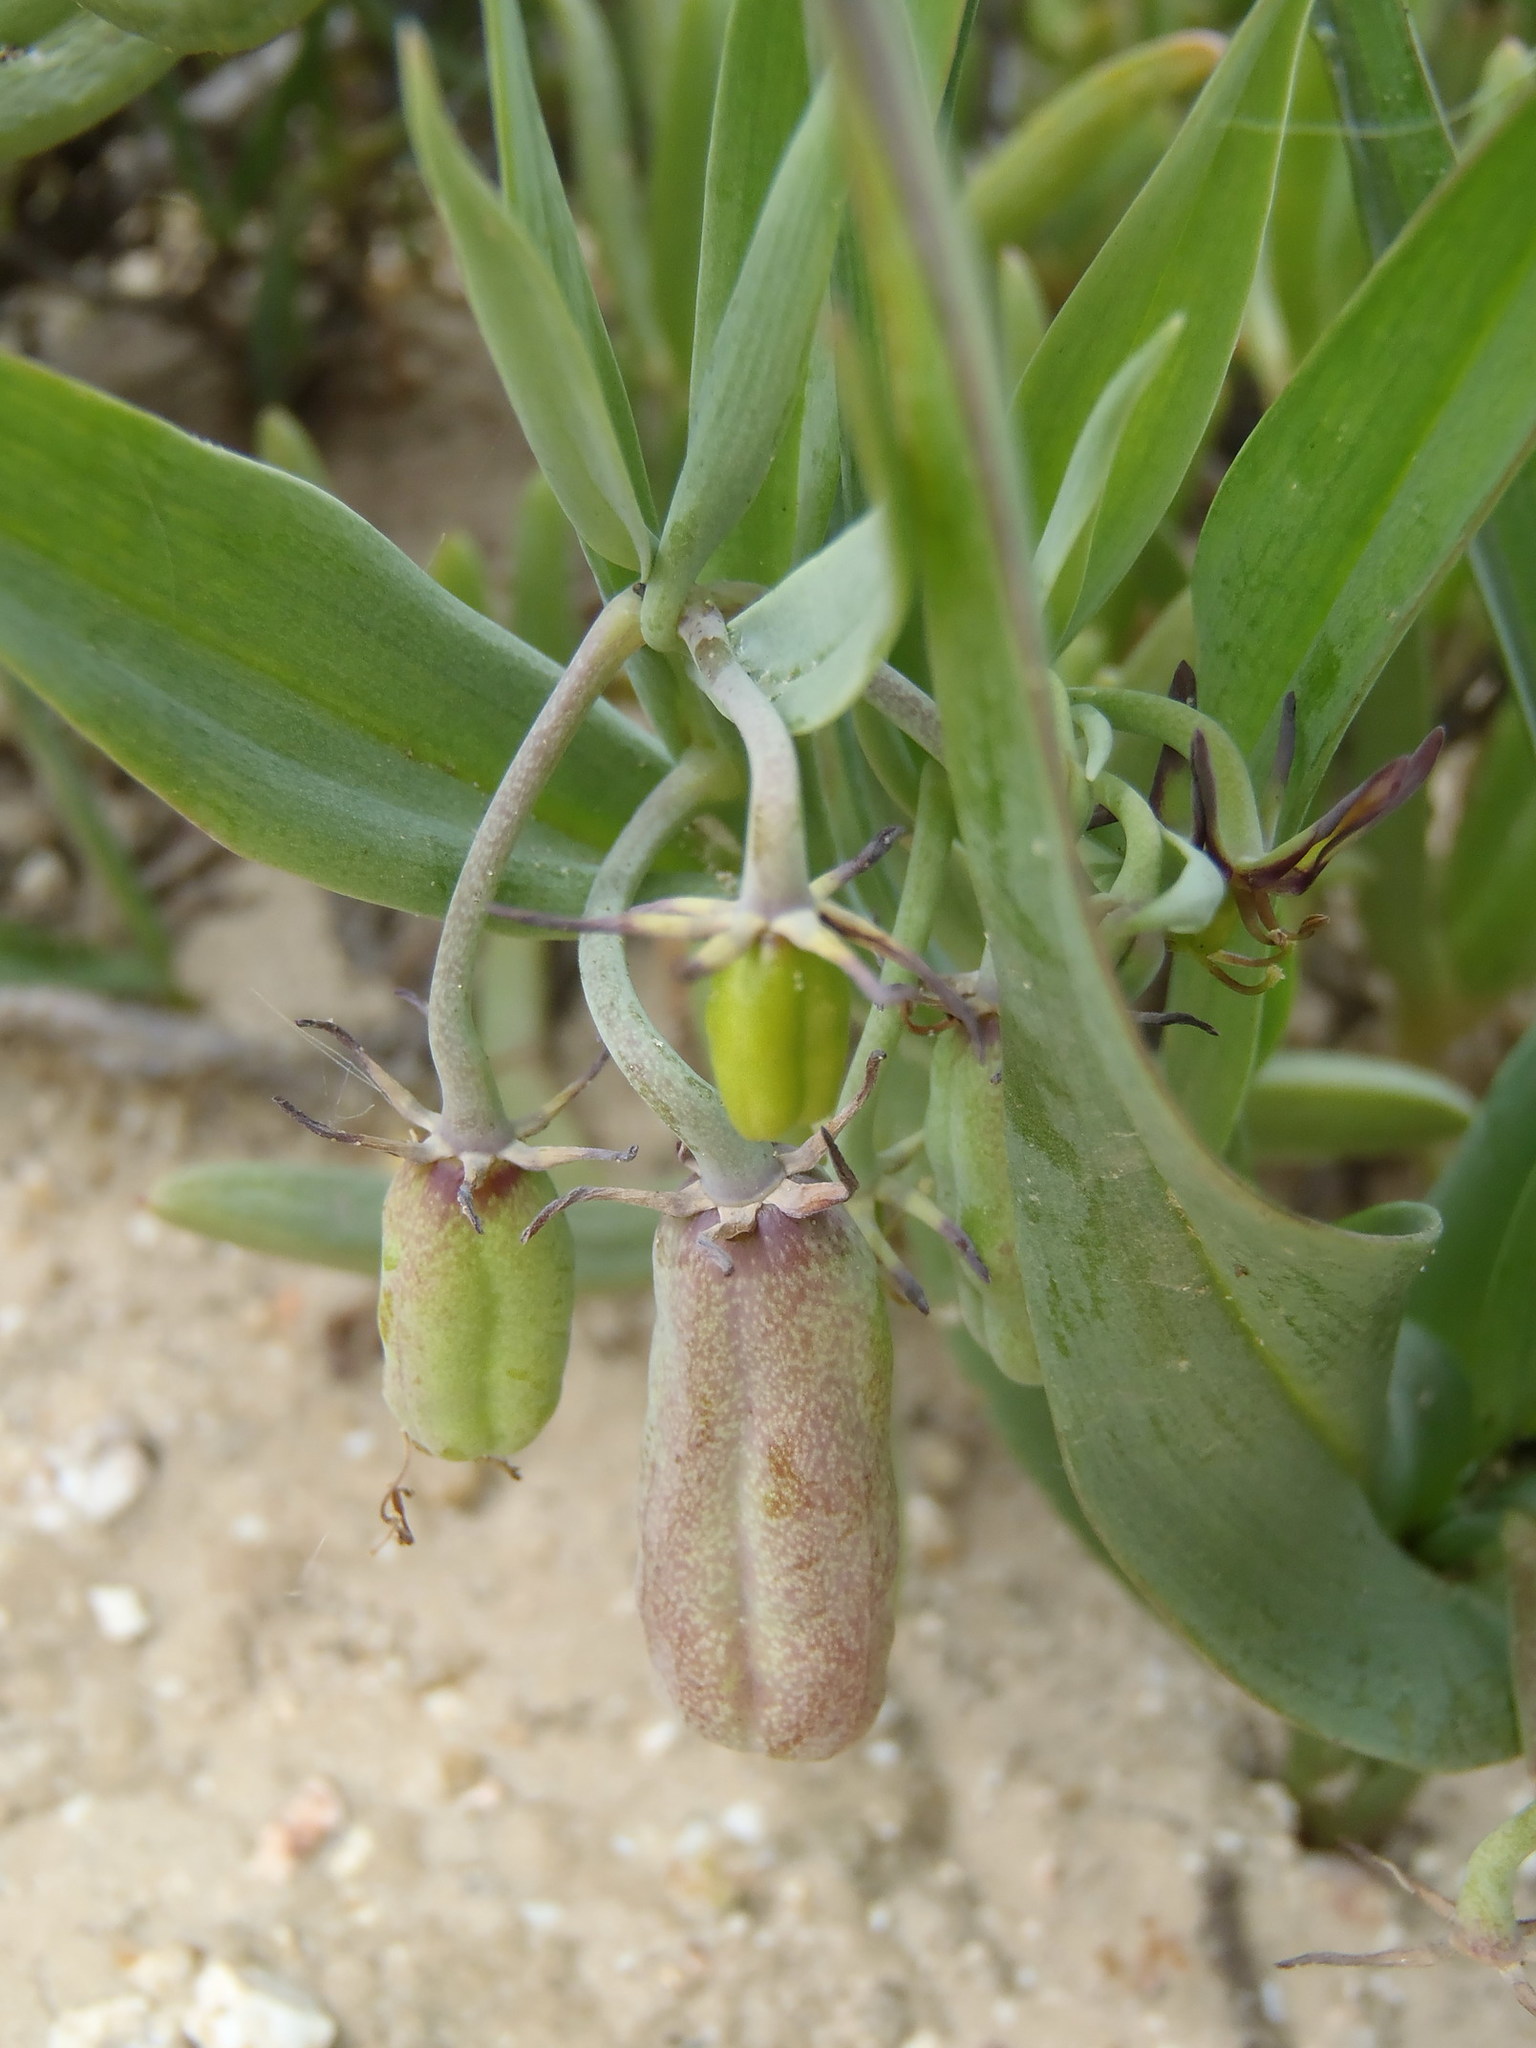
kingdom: Plantae
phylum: Tracheophyta
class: Liliopsida
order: Liliales
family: Colchicaceae
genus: Ornithoglossum
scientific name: Ornithoglossum viride
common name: Cape poison-onion
